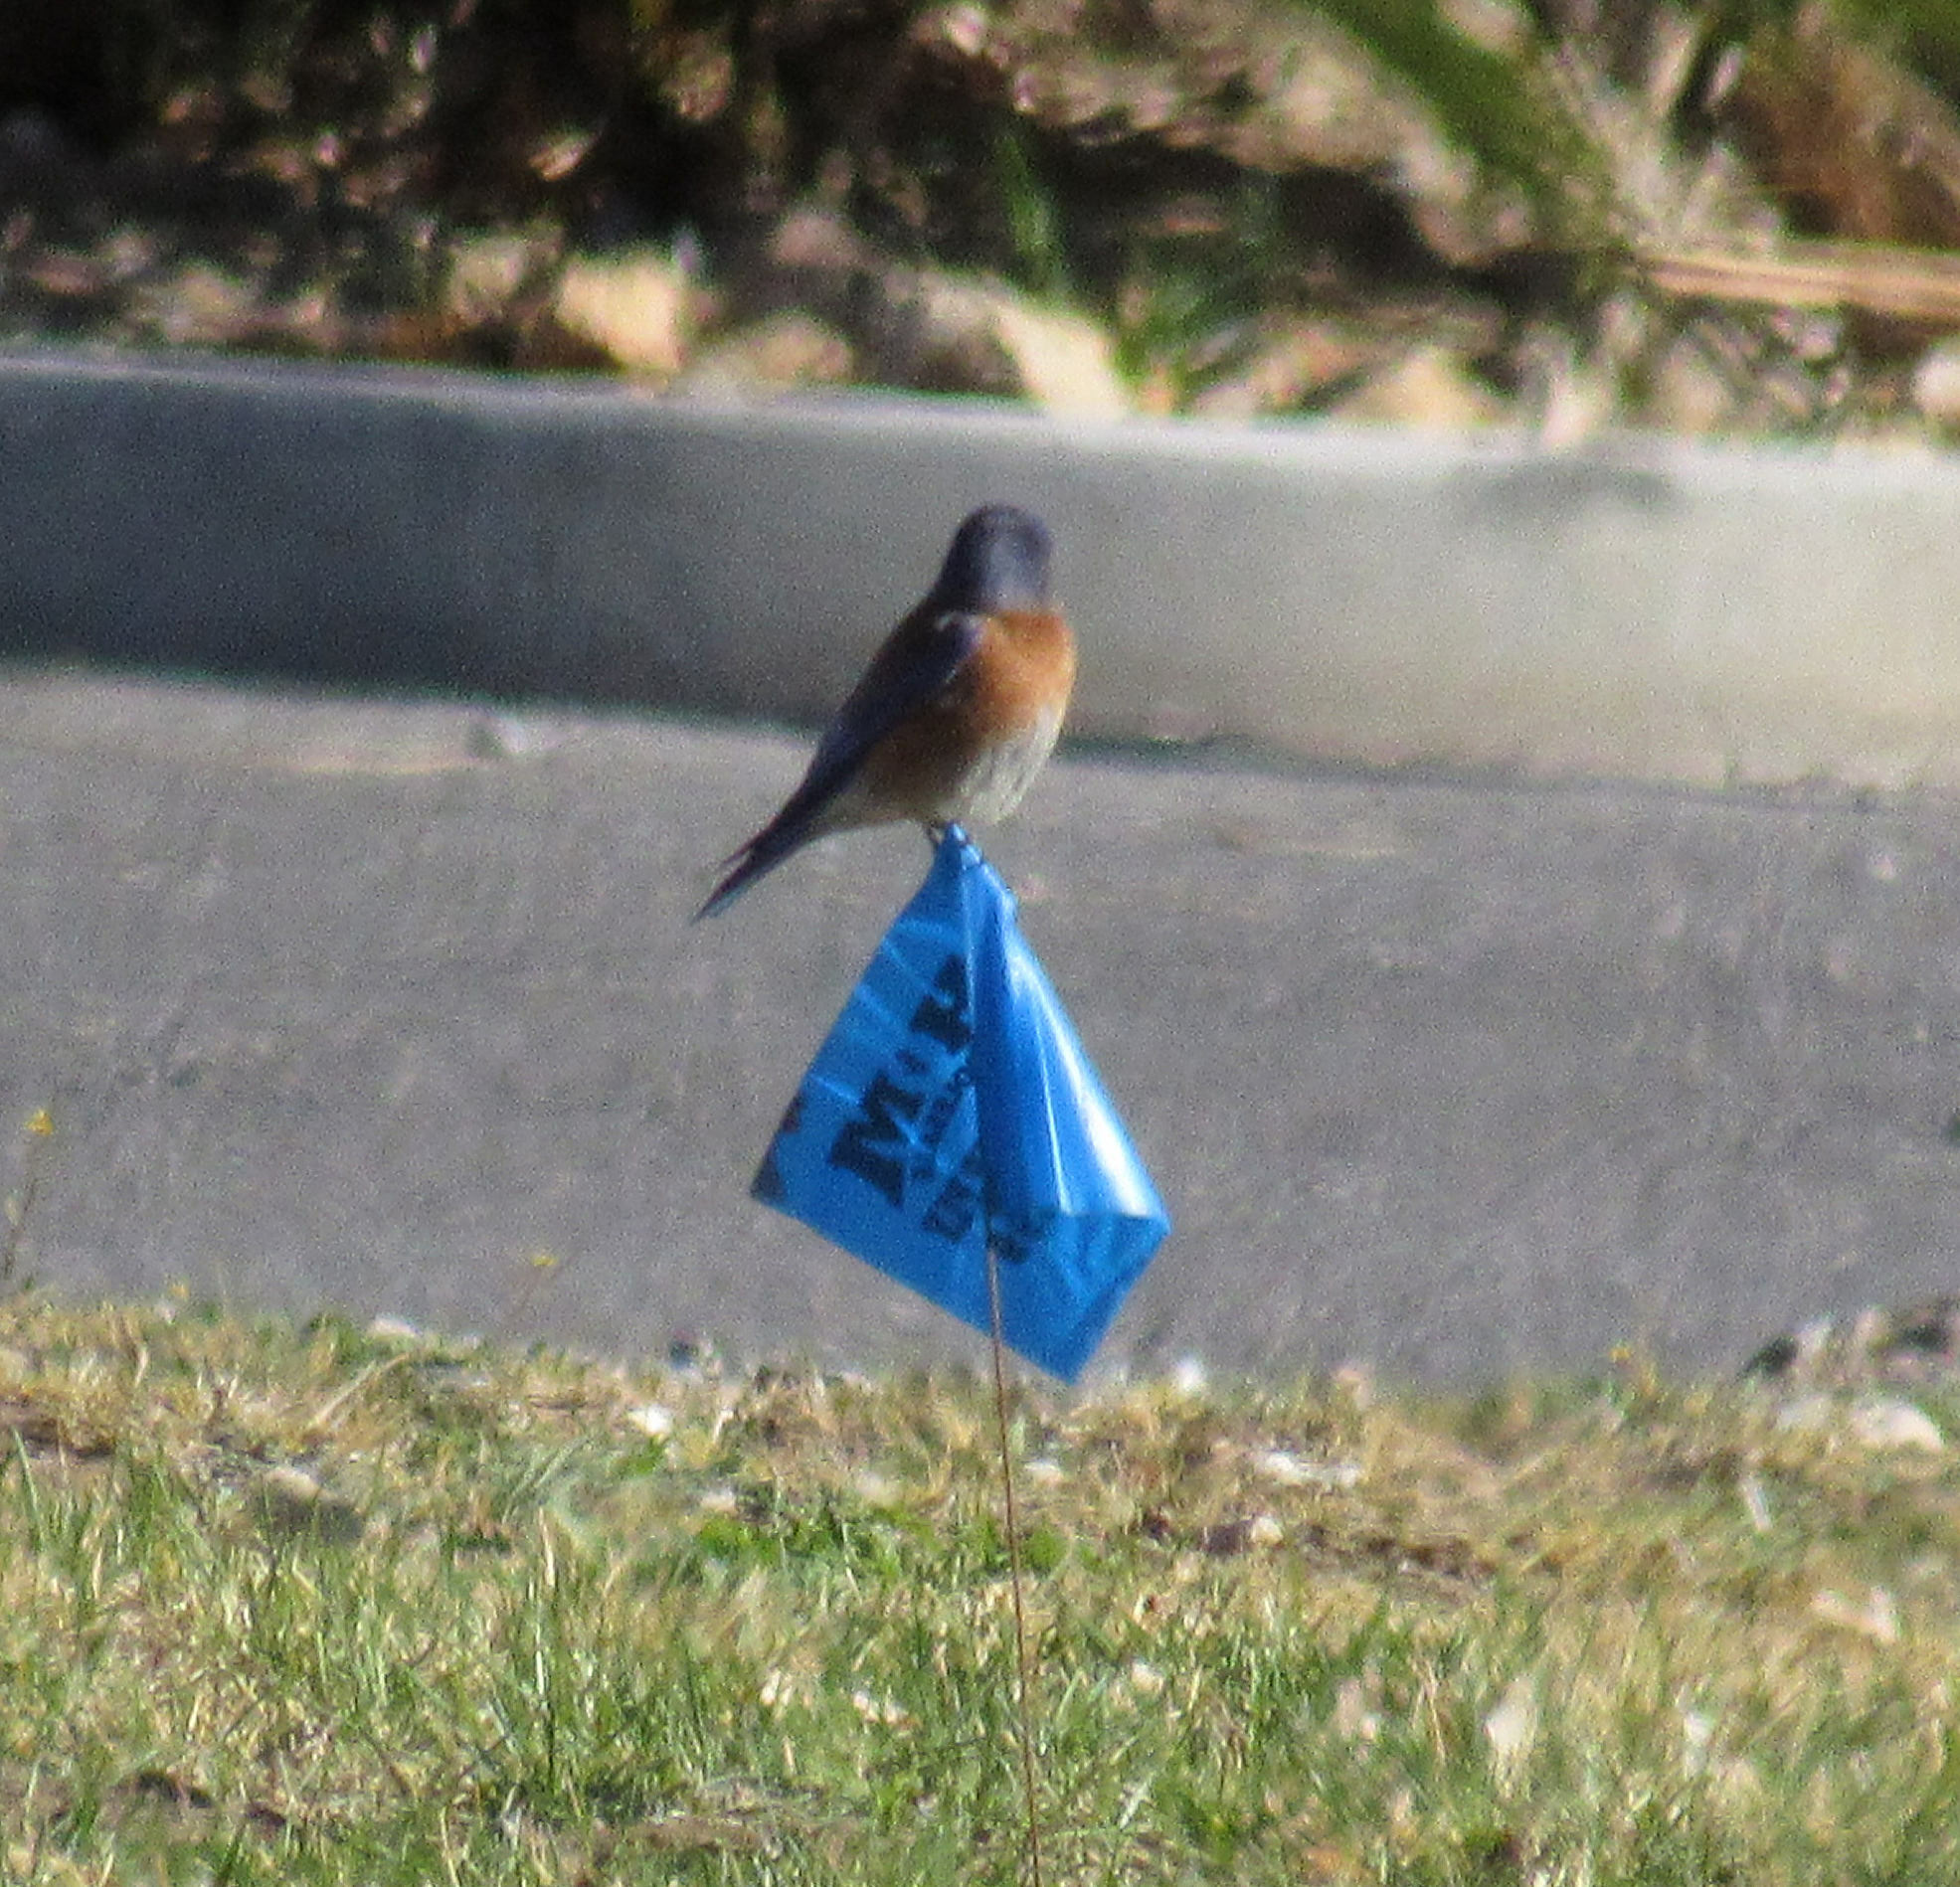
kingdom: Animalia
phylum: Chordata
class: Aves
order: Passeriformes
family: Turdidae
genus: Sialia
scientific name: Sialia mexicana
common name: Western bluebird
